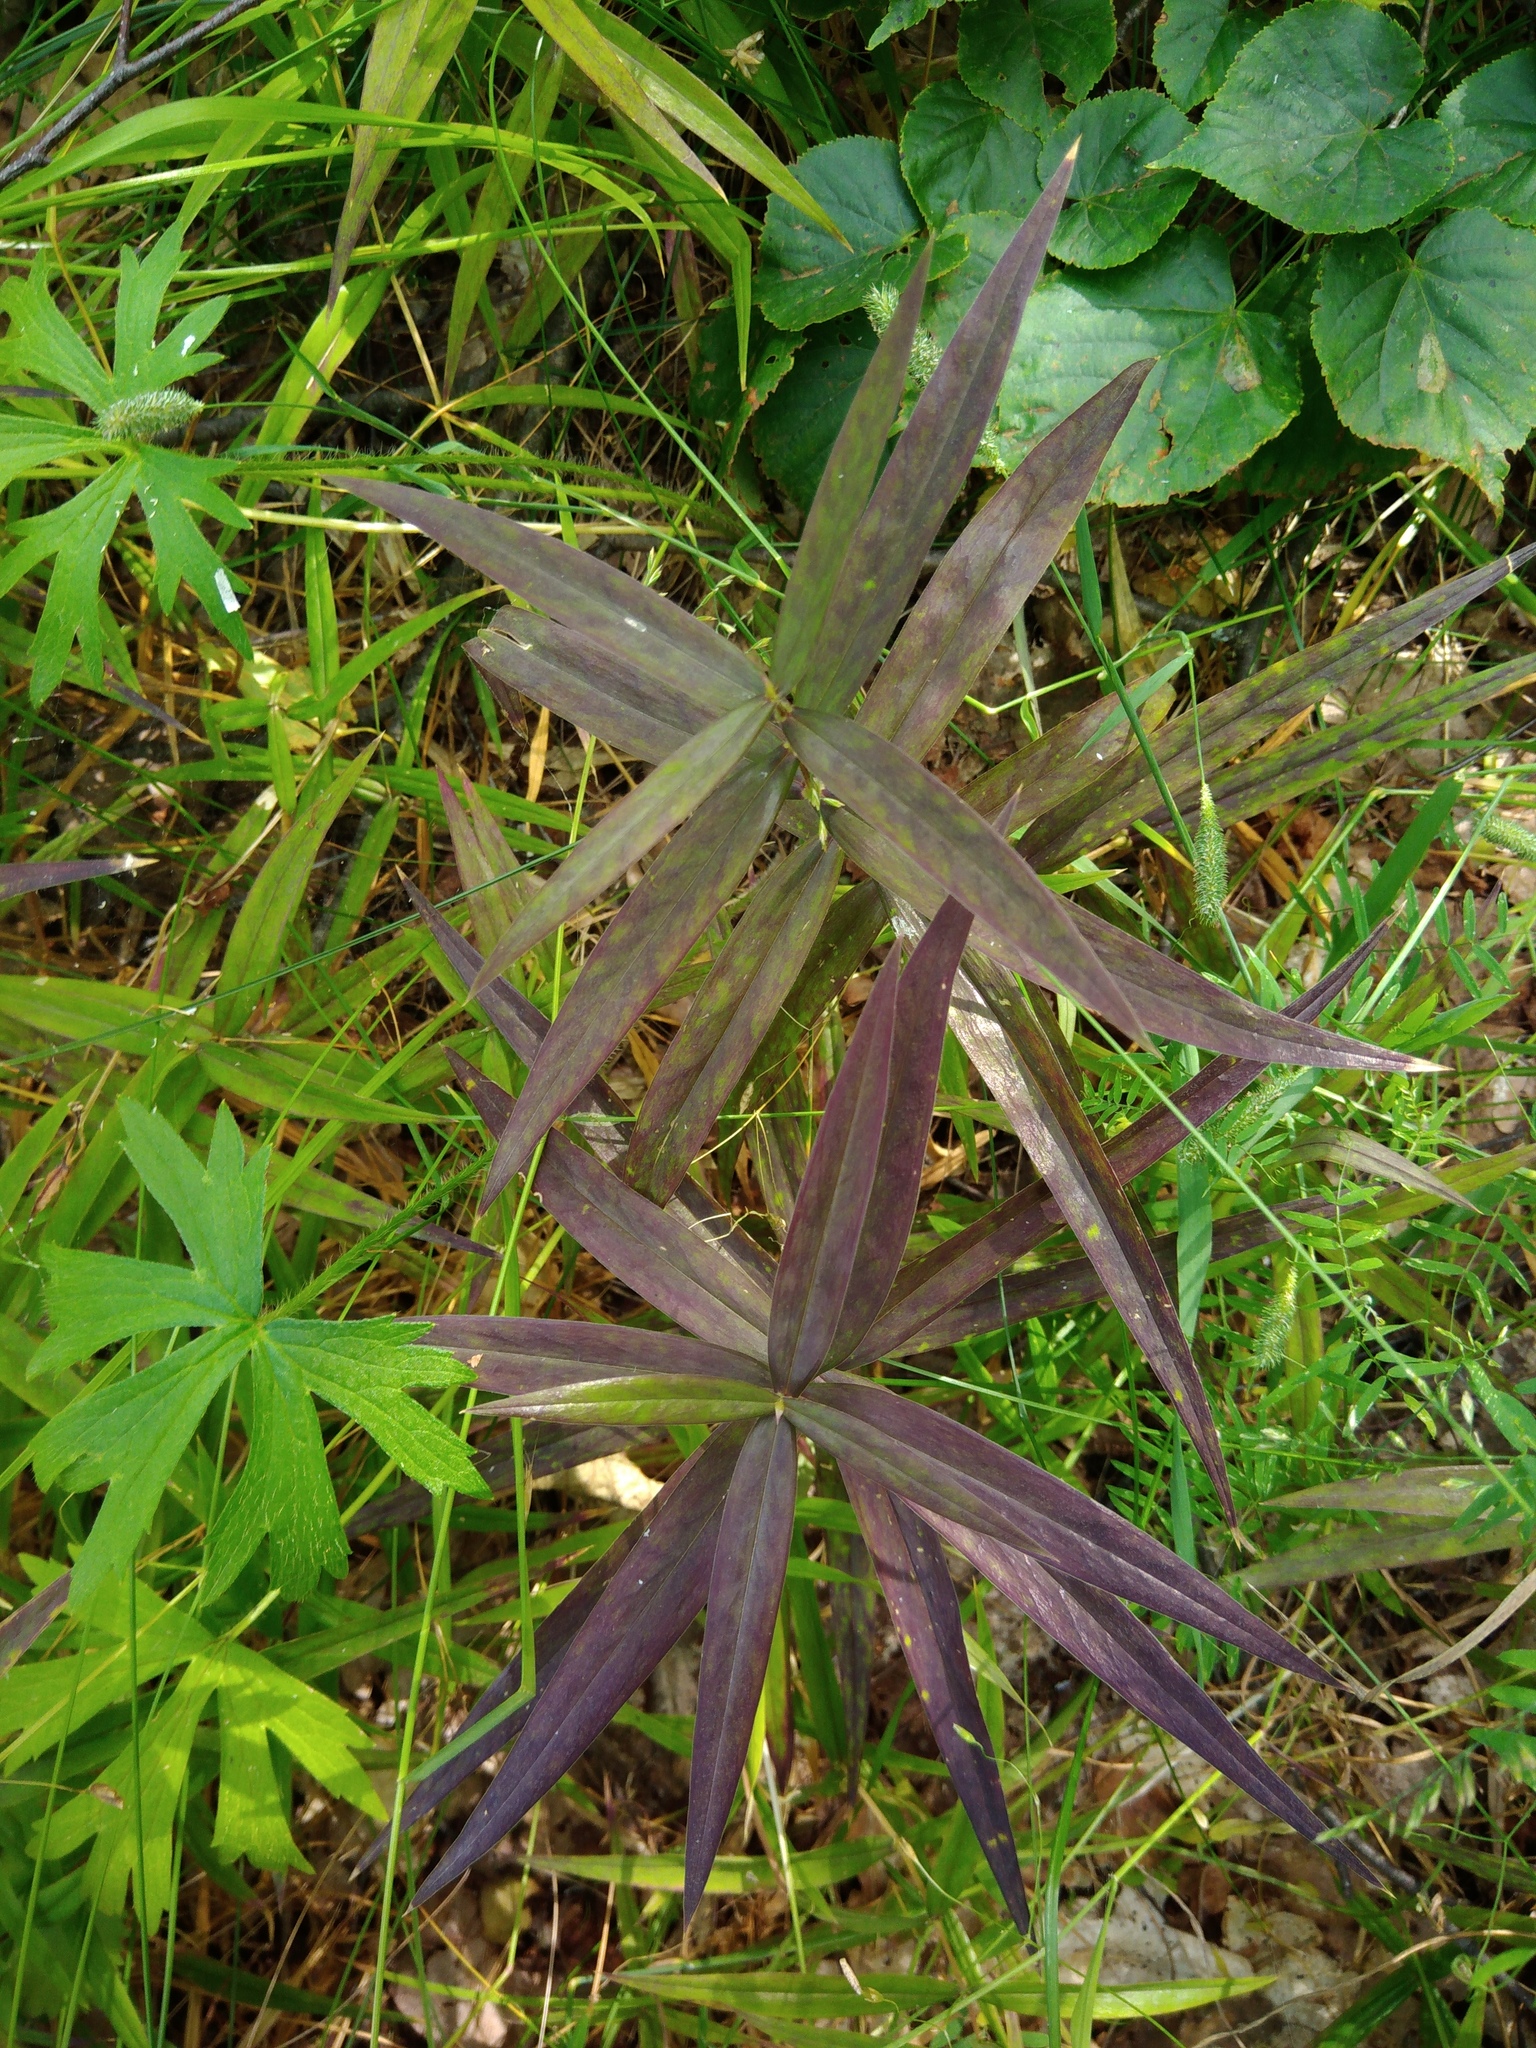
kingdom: Plantae
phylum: Tracheophyta
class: Magnoliopsida
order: Caryophyllales
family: Caryophyllaceae
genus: Rabelera
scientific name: Rabelera holostea
